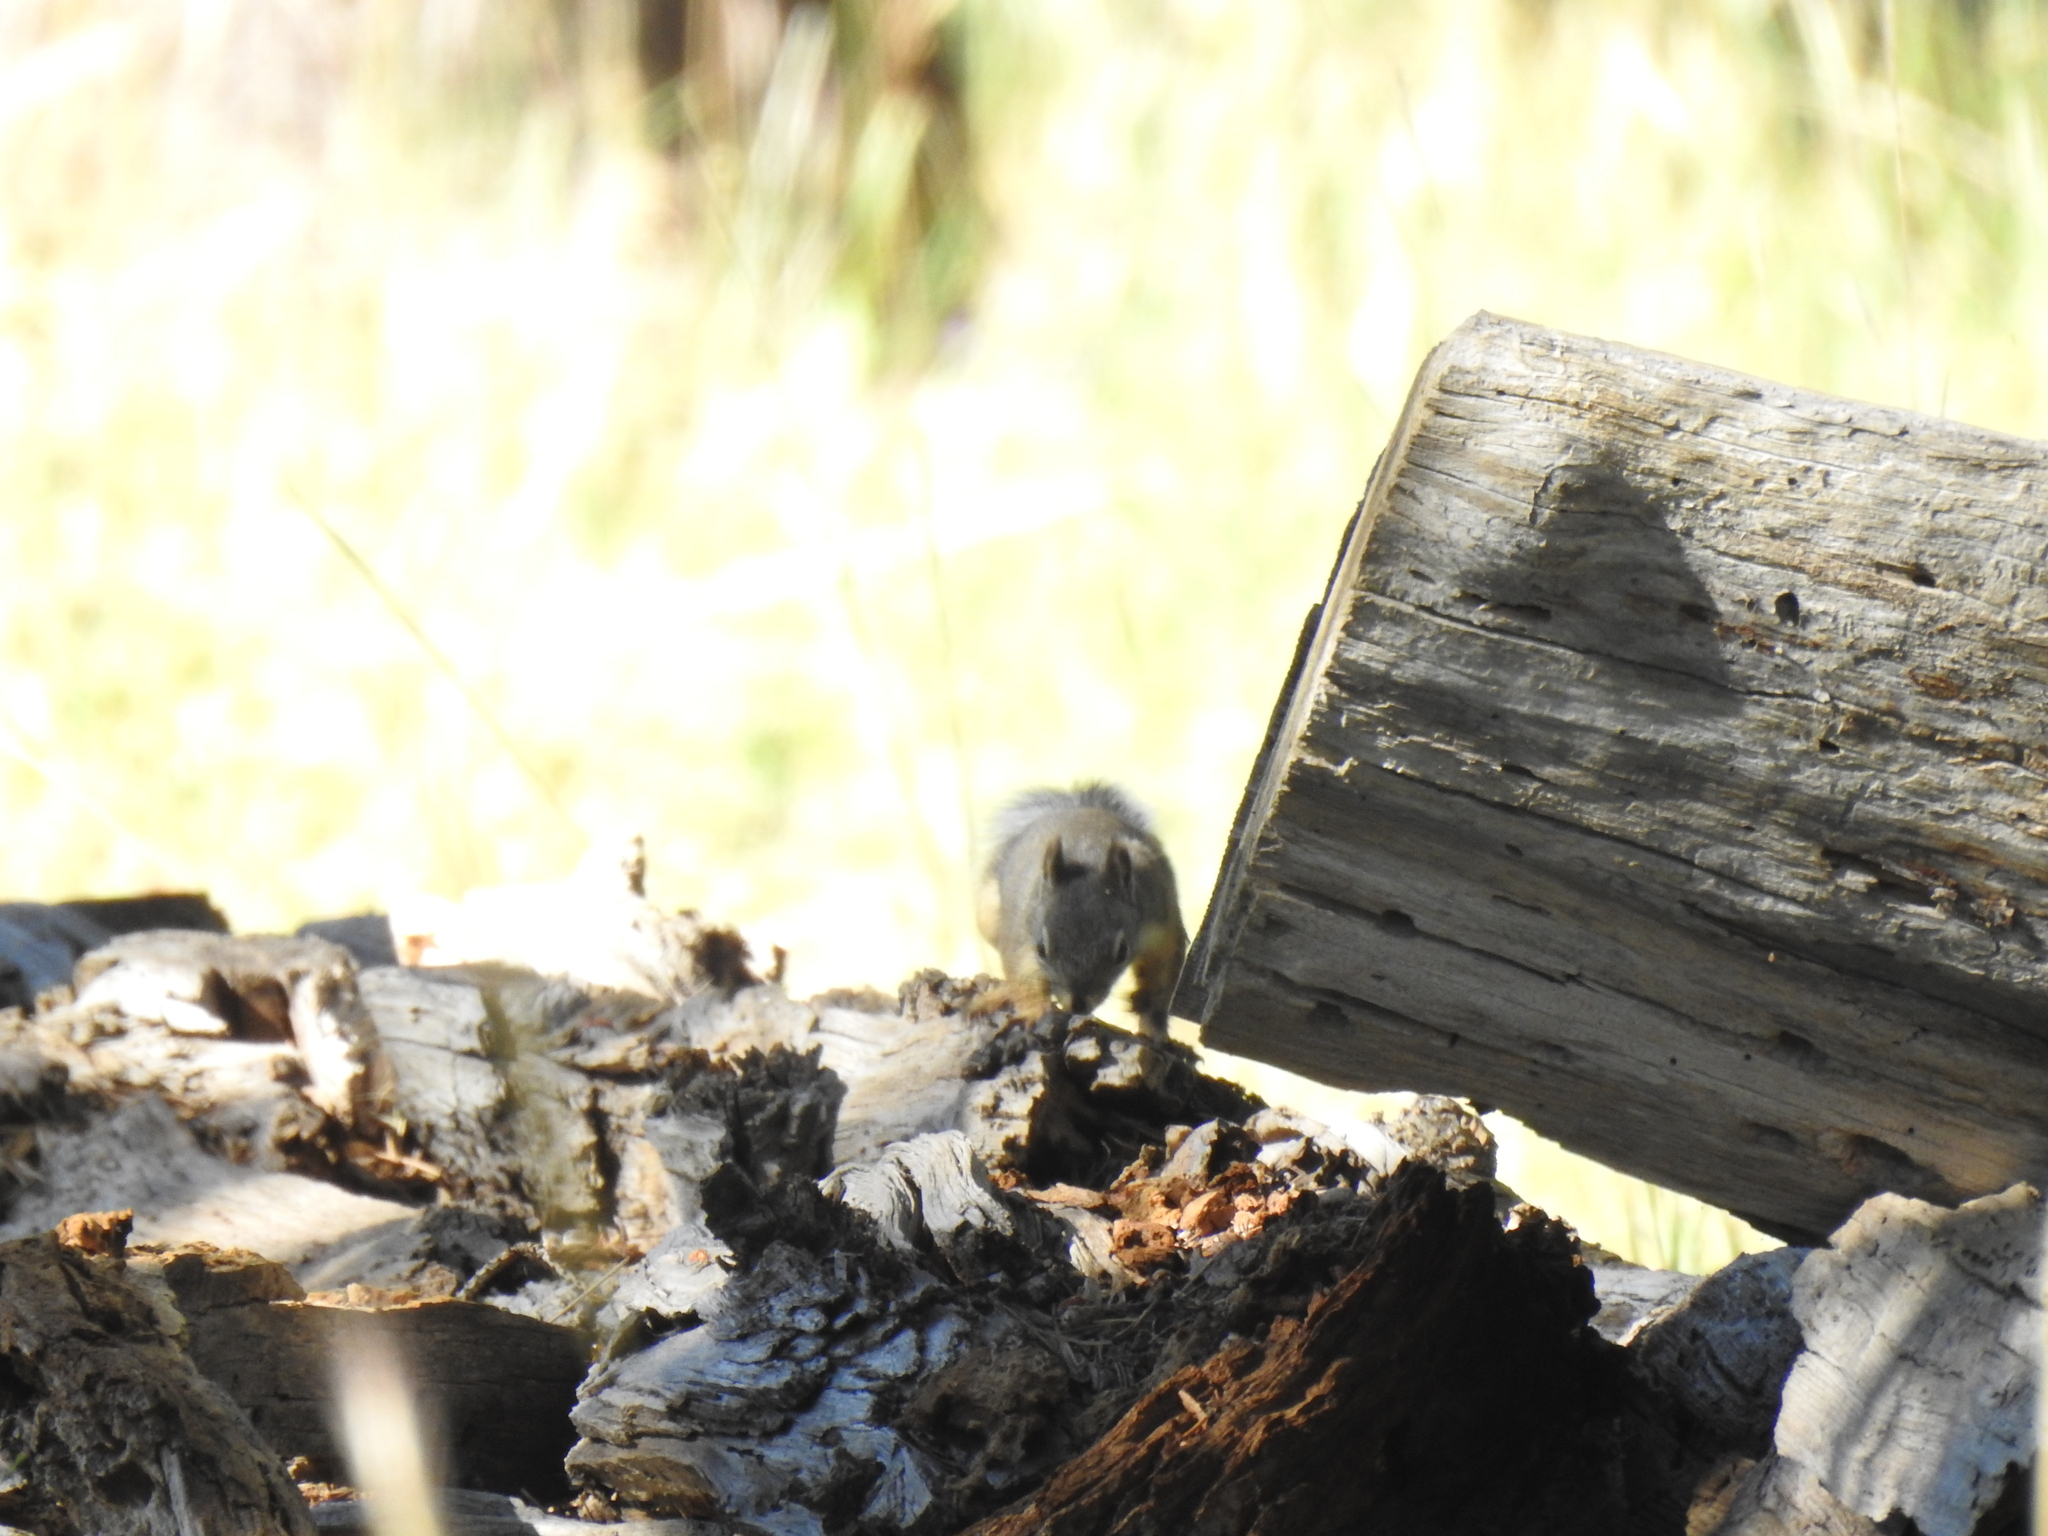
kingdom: Animalia
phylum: Chordata
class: Mammalia
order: Rodentia
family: Sciuridae
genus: Tamiasciurus
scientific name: Tamiasciurus douglasii
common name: Douglas's squirrel
